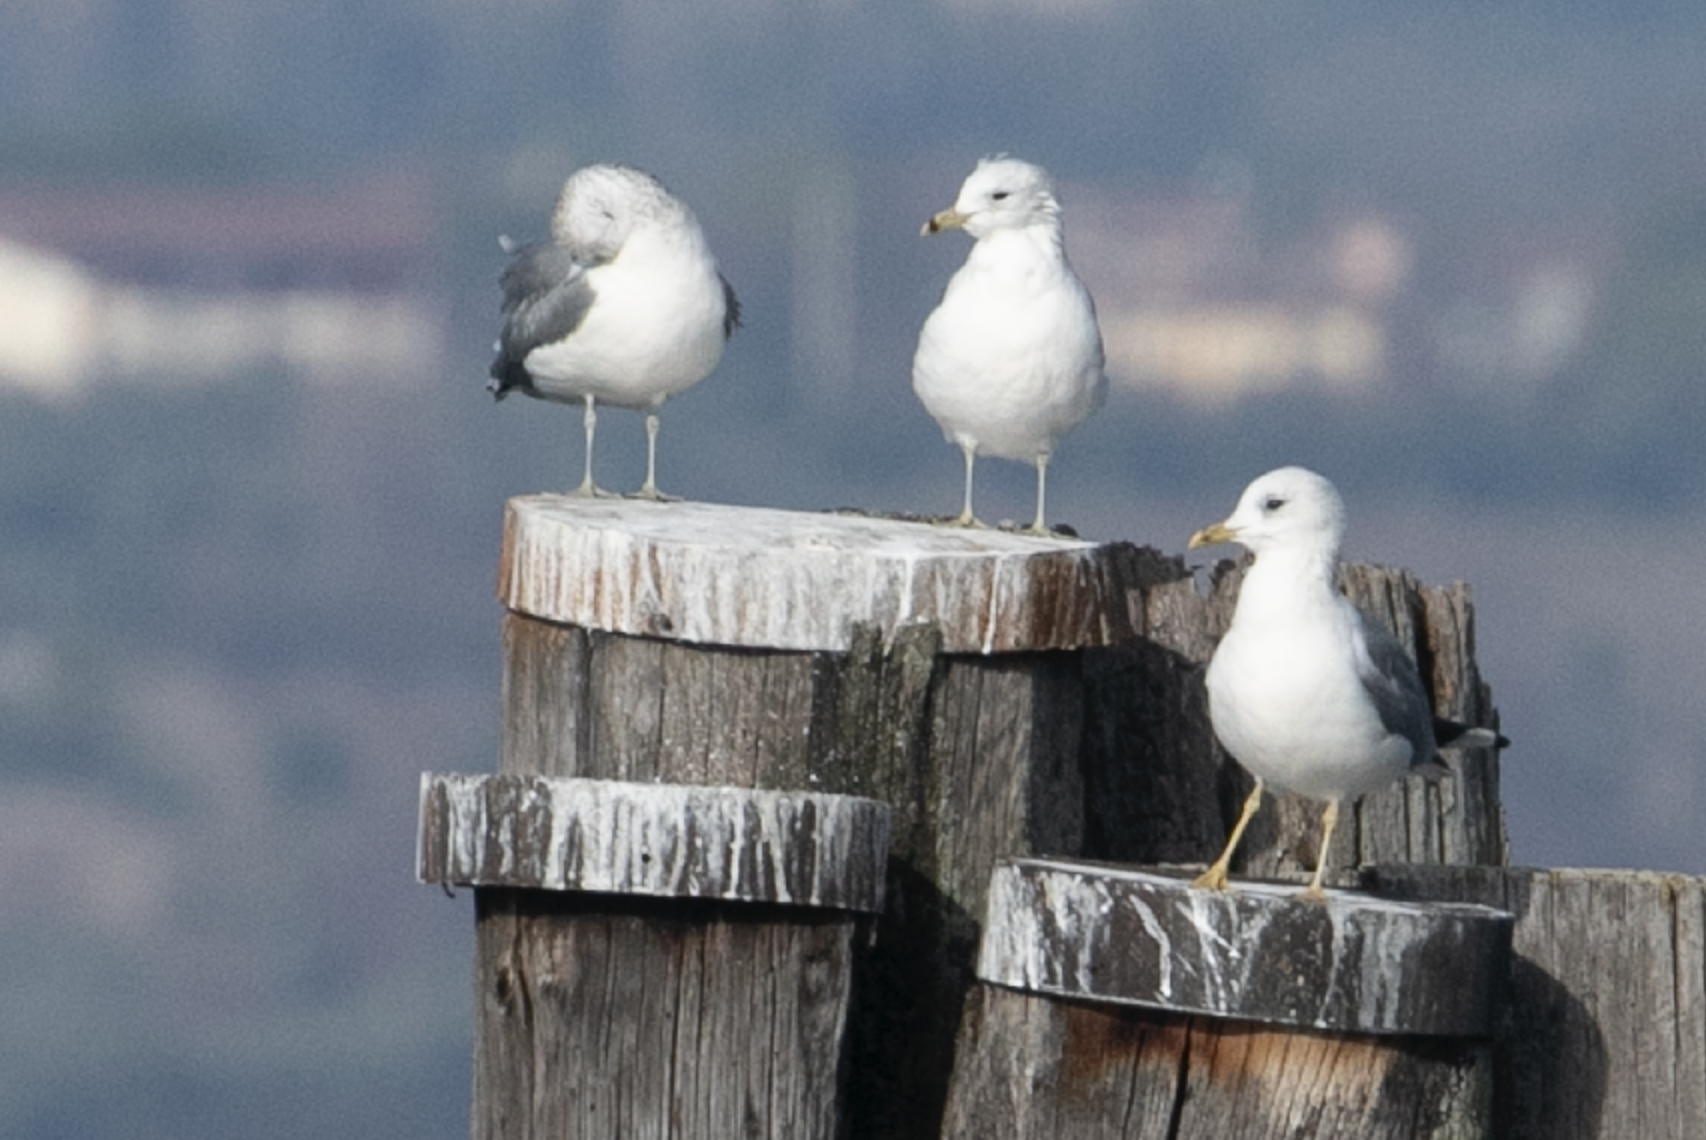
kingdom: Animalia
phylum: Chordata
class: Aves
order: Charadriiformes
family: Laridae
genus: Larus
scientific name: Larus canus
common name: Mew gull
